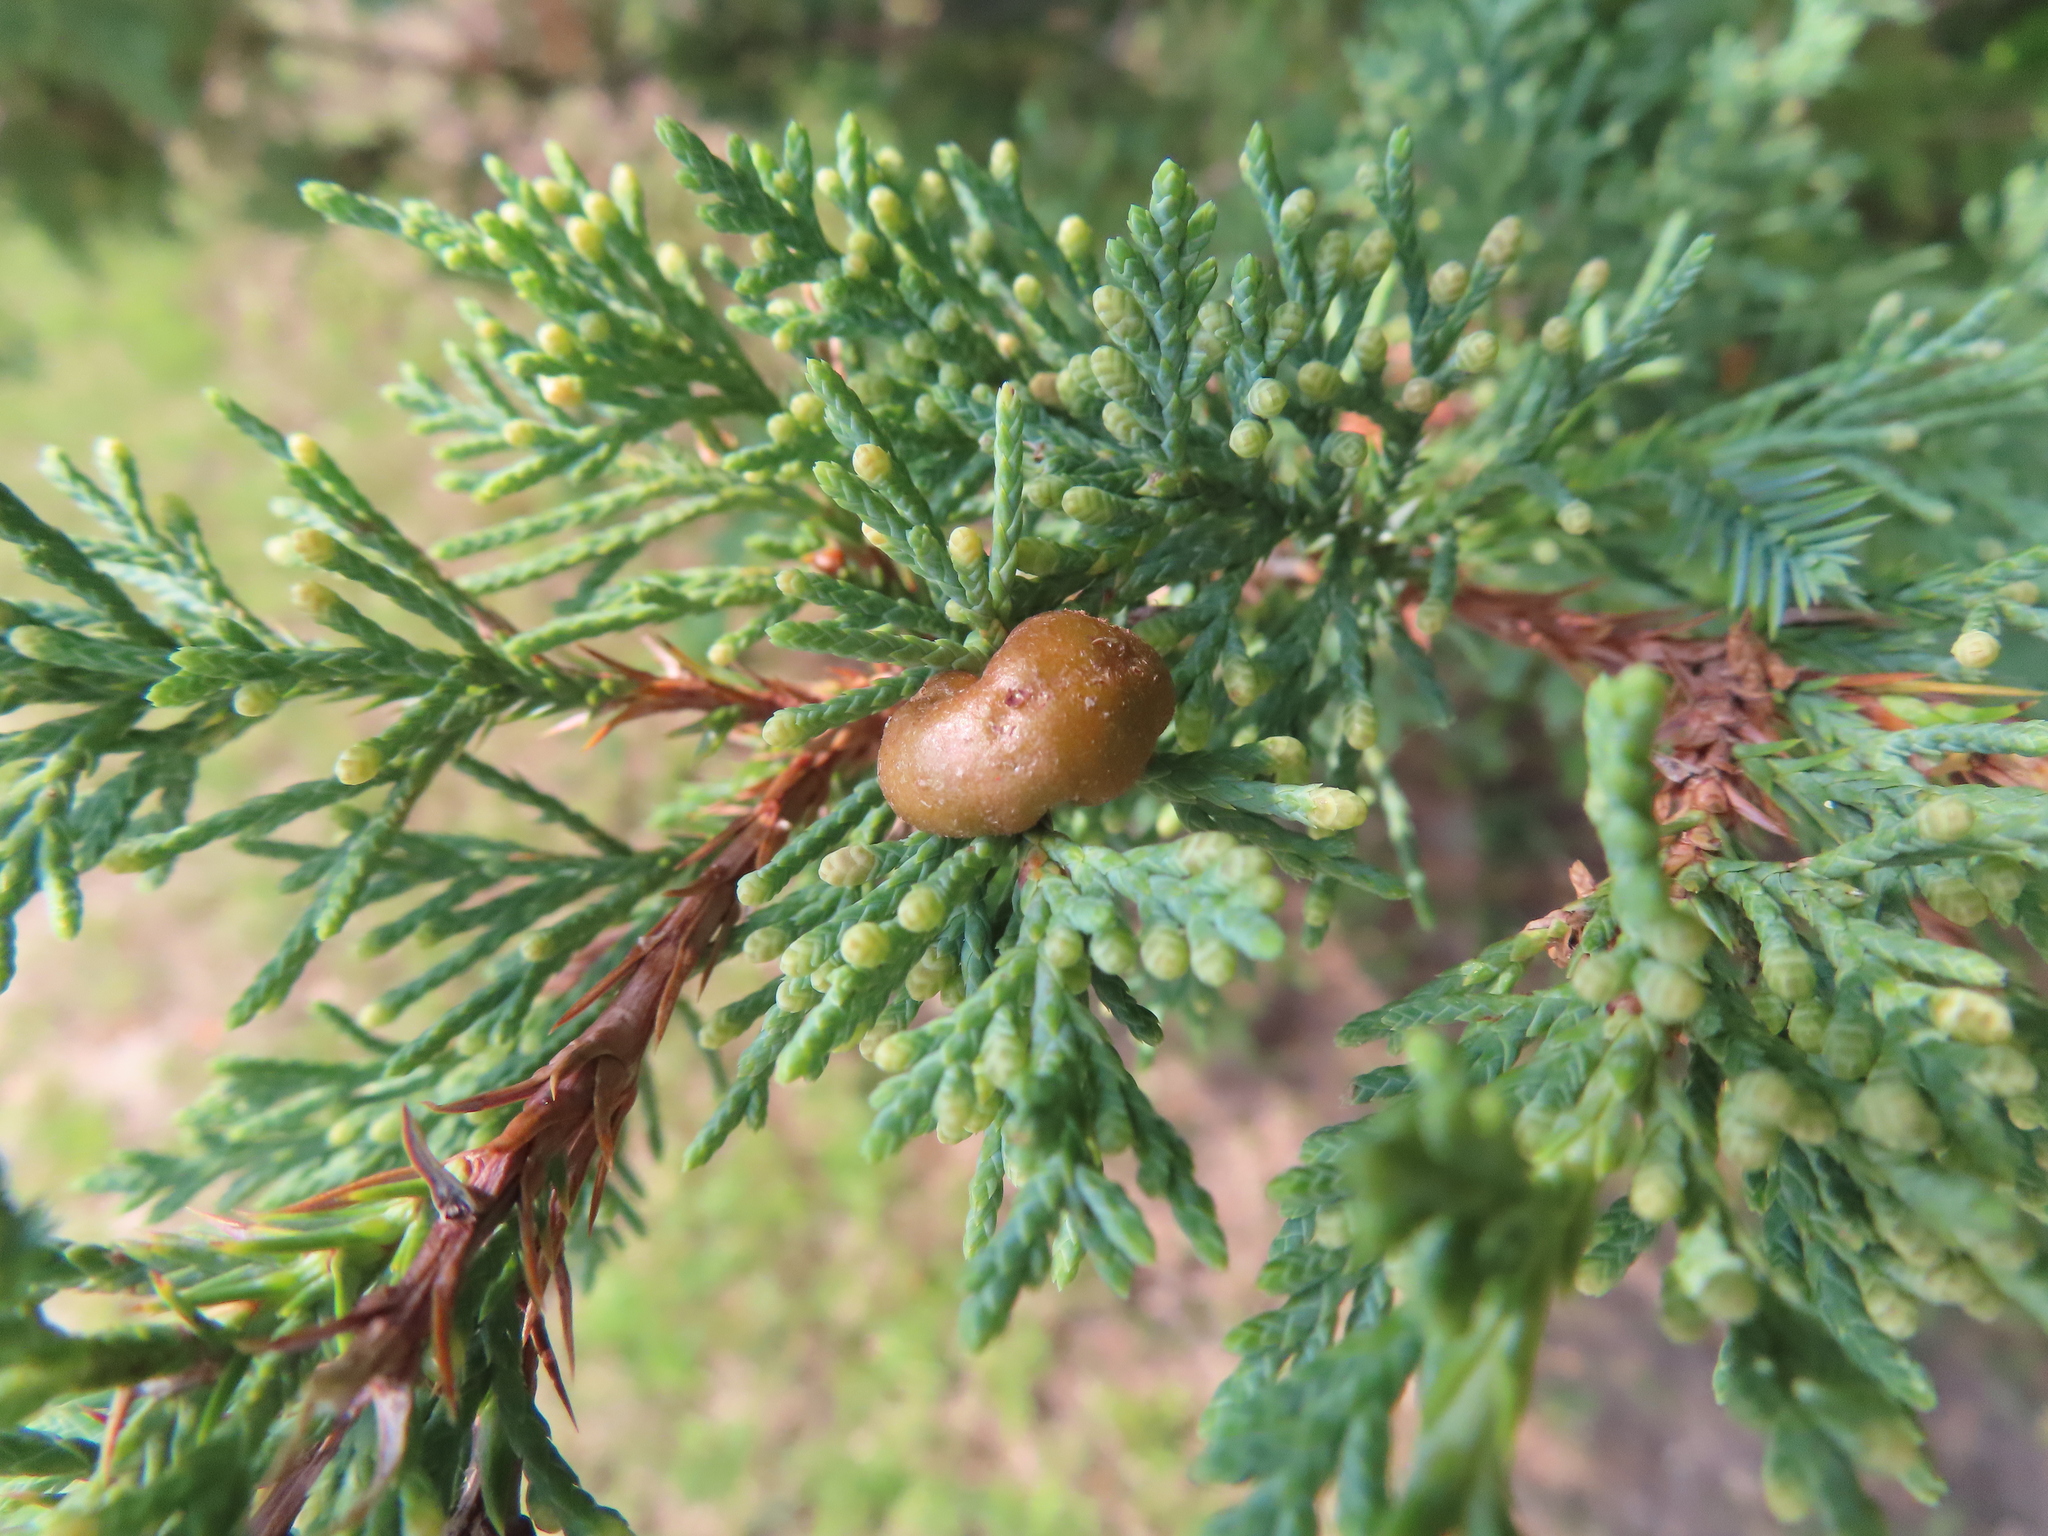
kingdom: Fungi
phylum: Basidiomycota
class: Pucciniomycetes
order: Pucciniales
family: Gymnosporangiaceae
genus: Gymnosporangium
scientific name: Gymnosporangium juniperi-virginianae
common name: Juniper-apple rust
